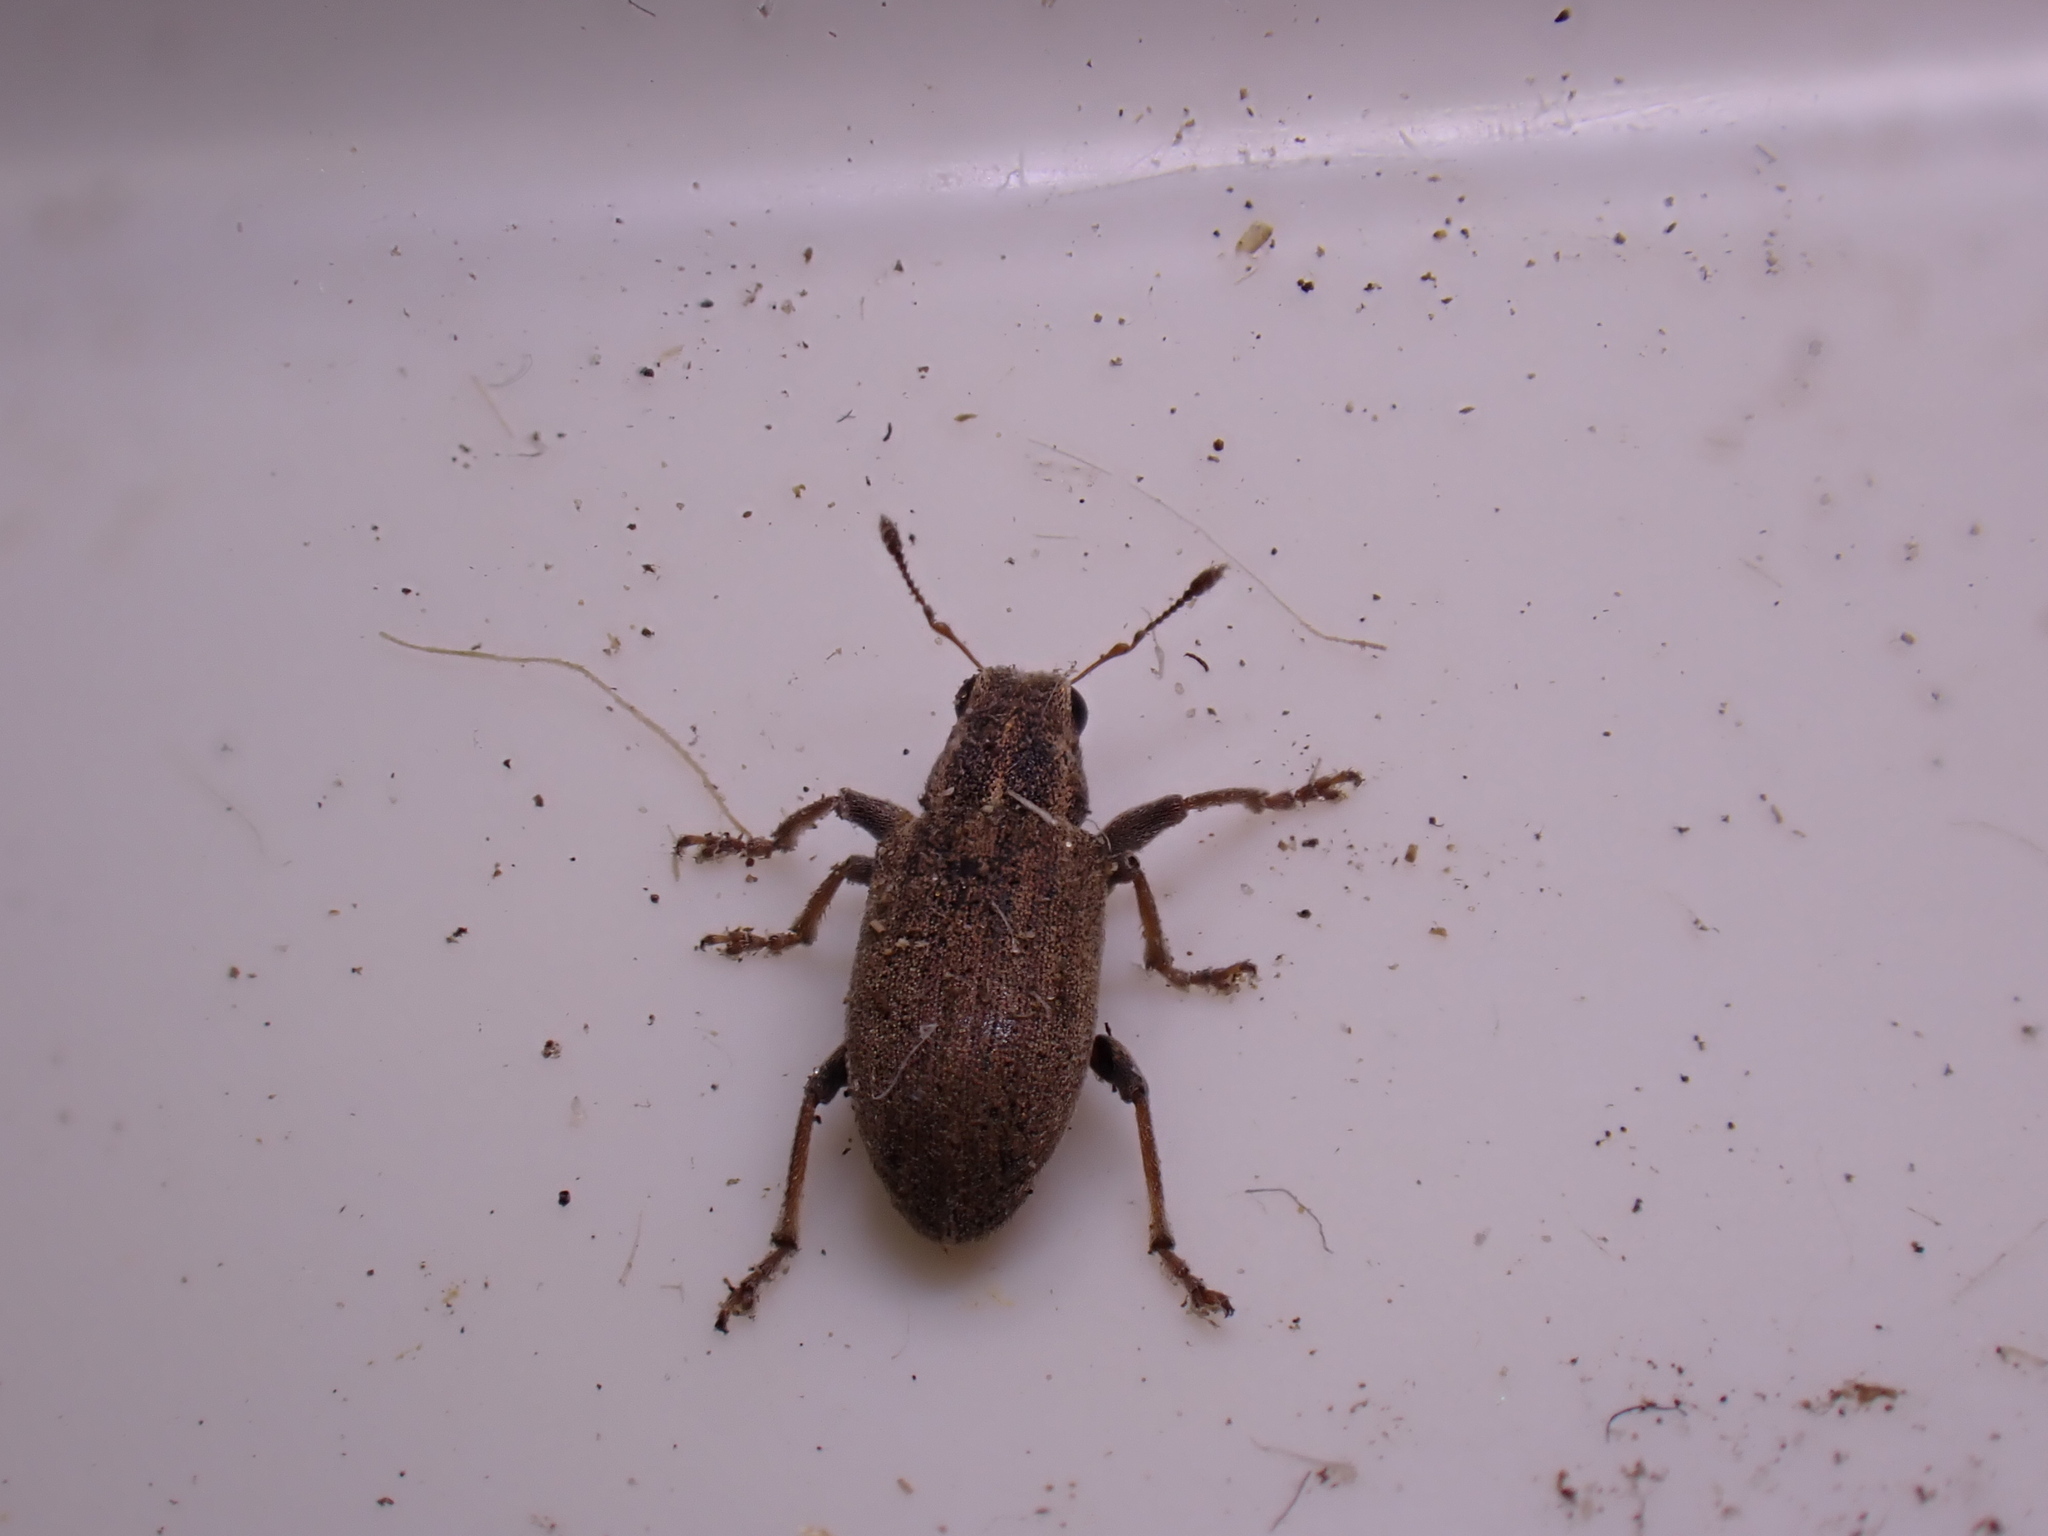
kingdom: Animalia
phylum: Arthropoda
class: Insecta
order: Coleoptera
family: Curculionidae
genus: Sitona
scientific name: Sitona lineatus
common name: Weevil
